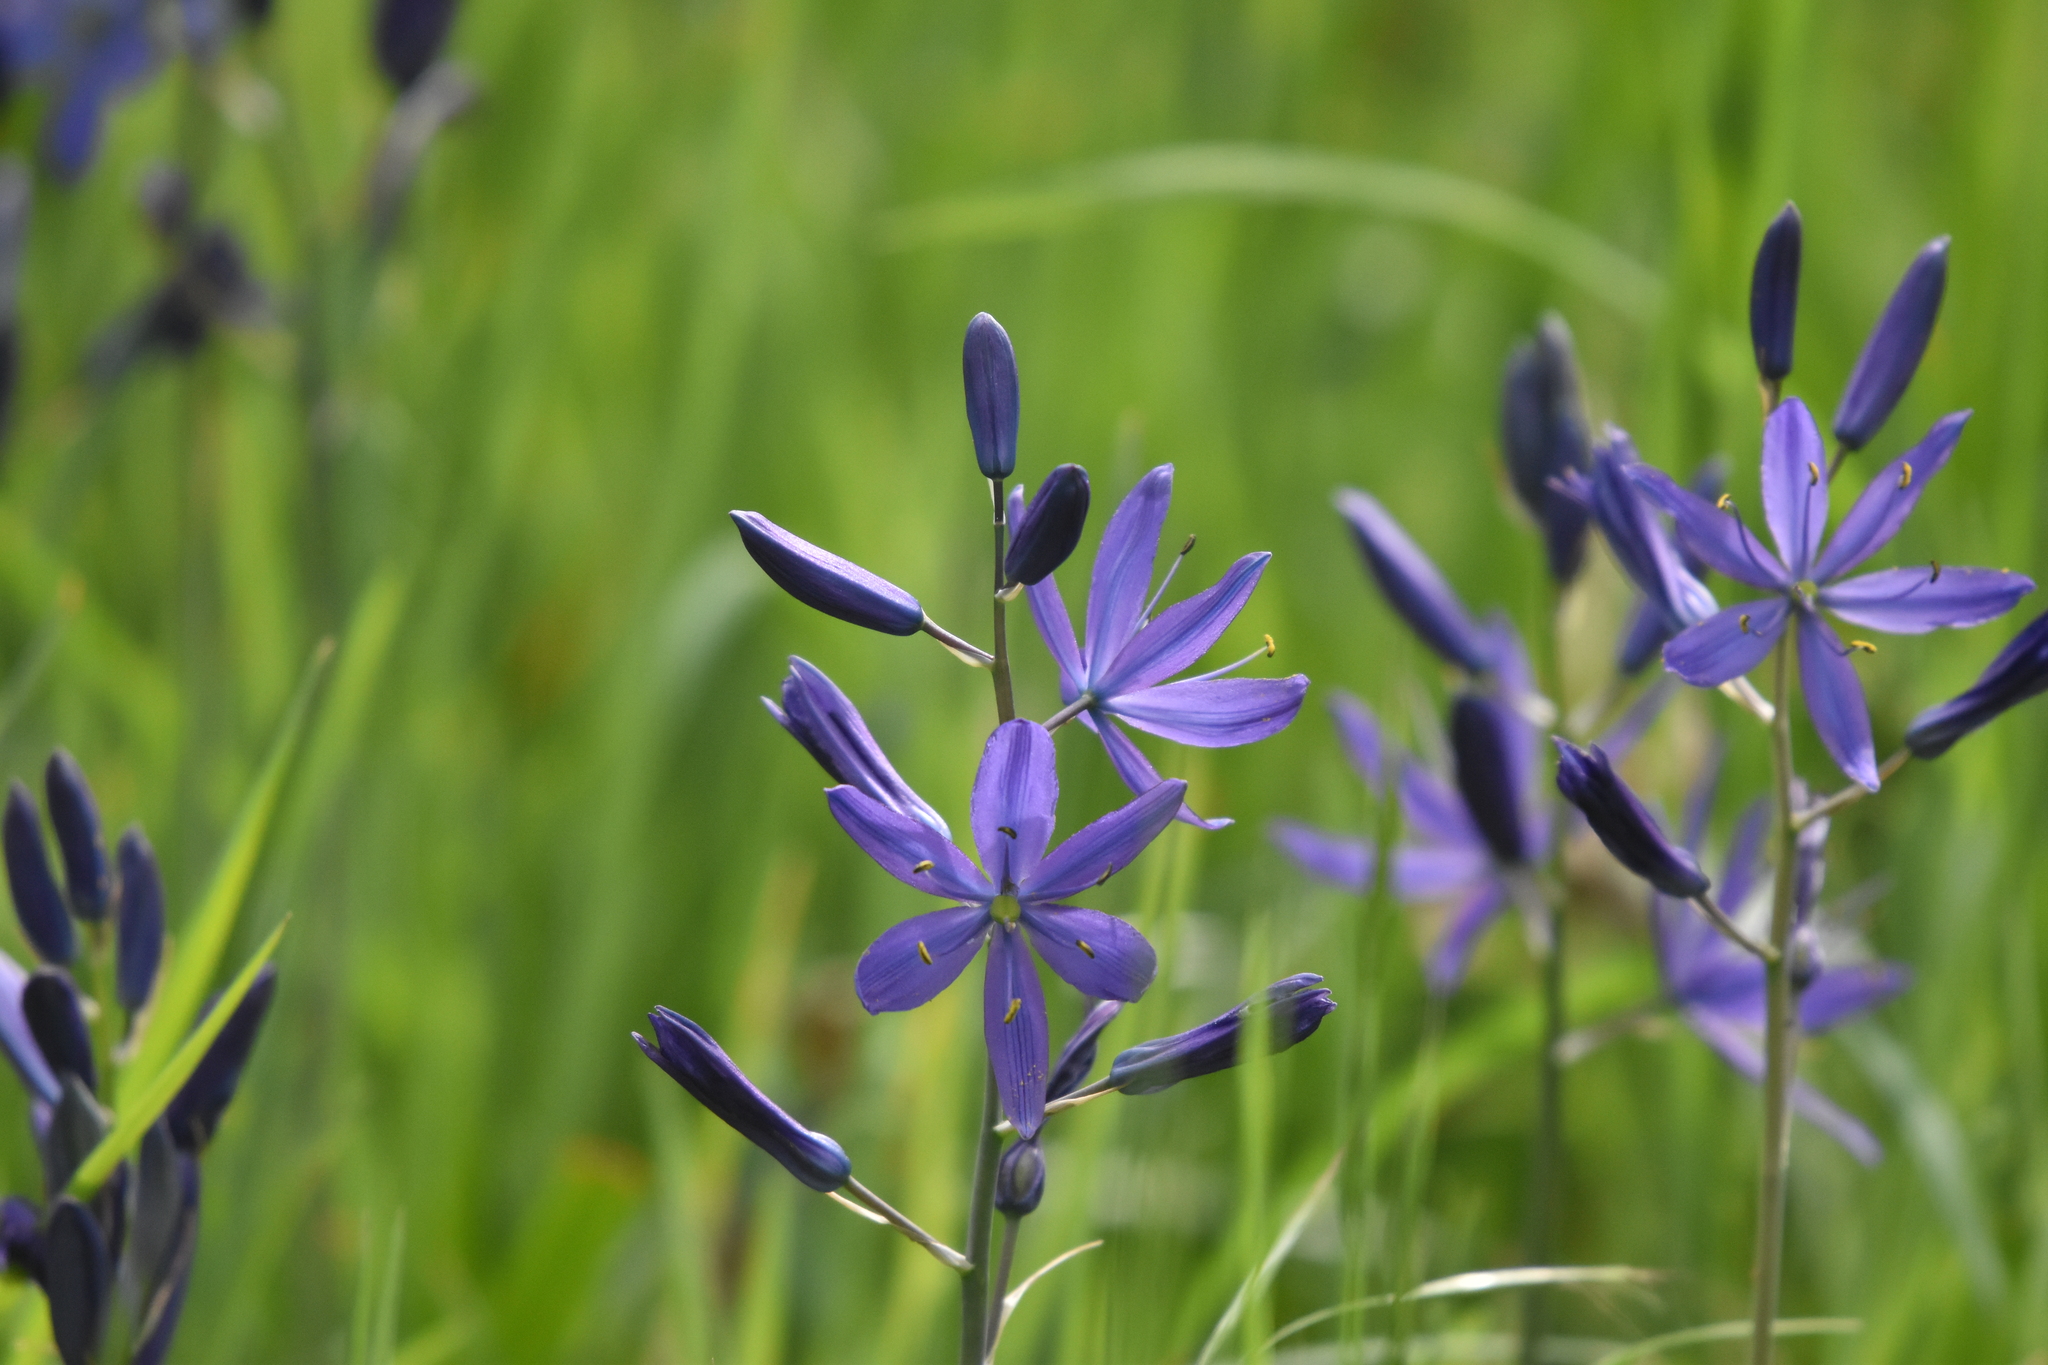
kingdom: Plantae
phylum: Tracheophyta
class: Liliopsida
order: Asparagales
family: Asparagaceae
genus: Camassia
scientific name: Camassia leichtlinii
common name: Leichtlin's camas
